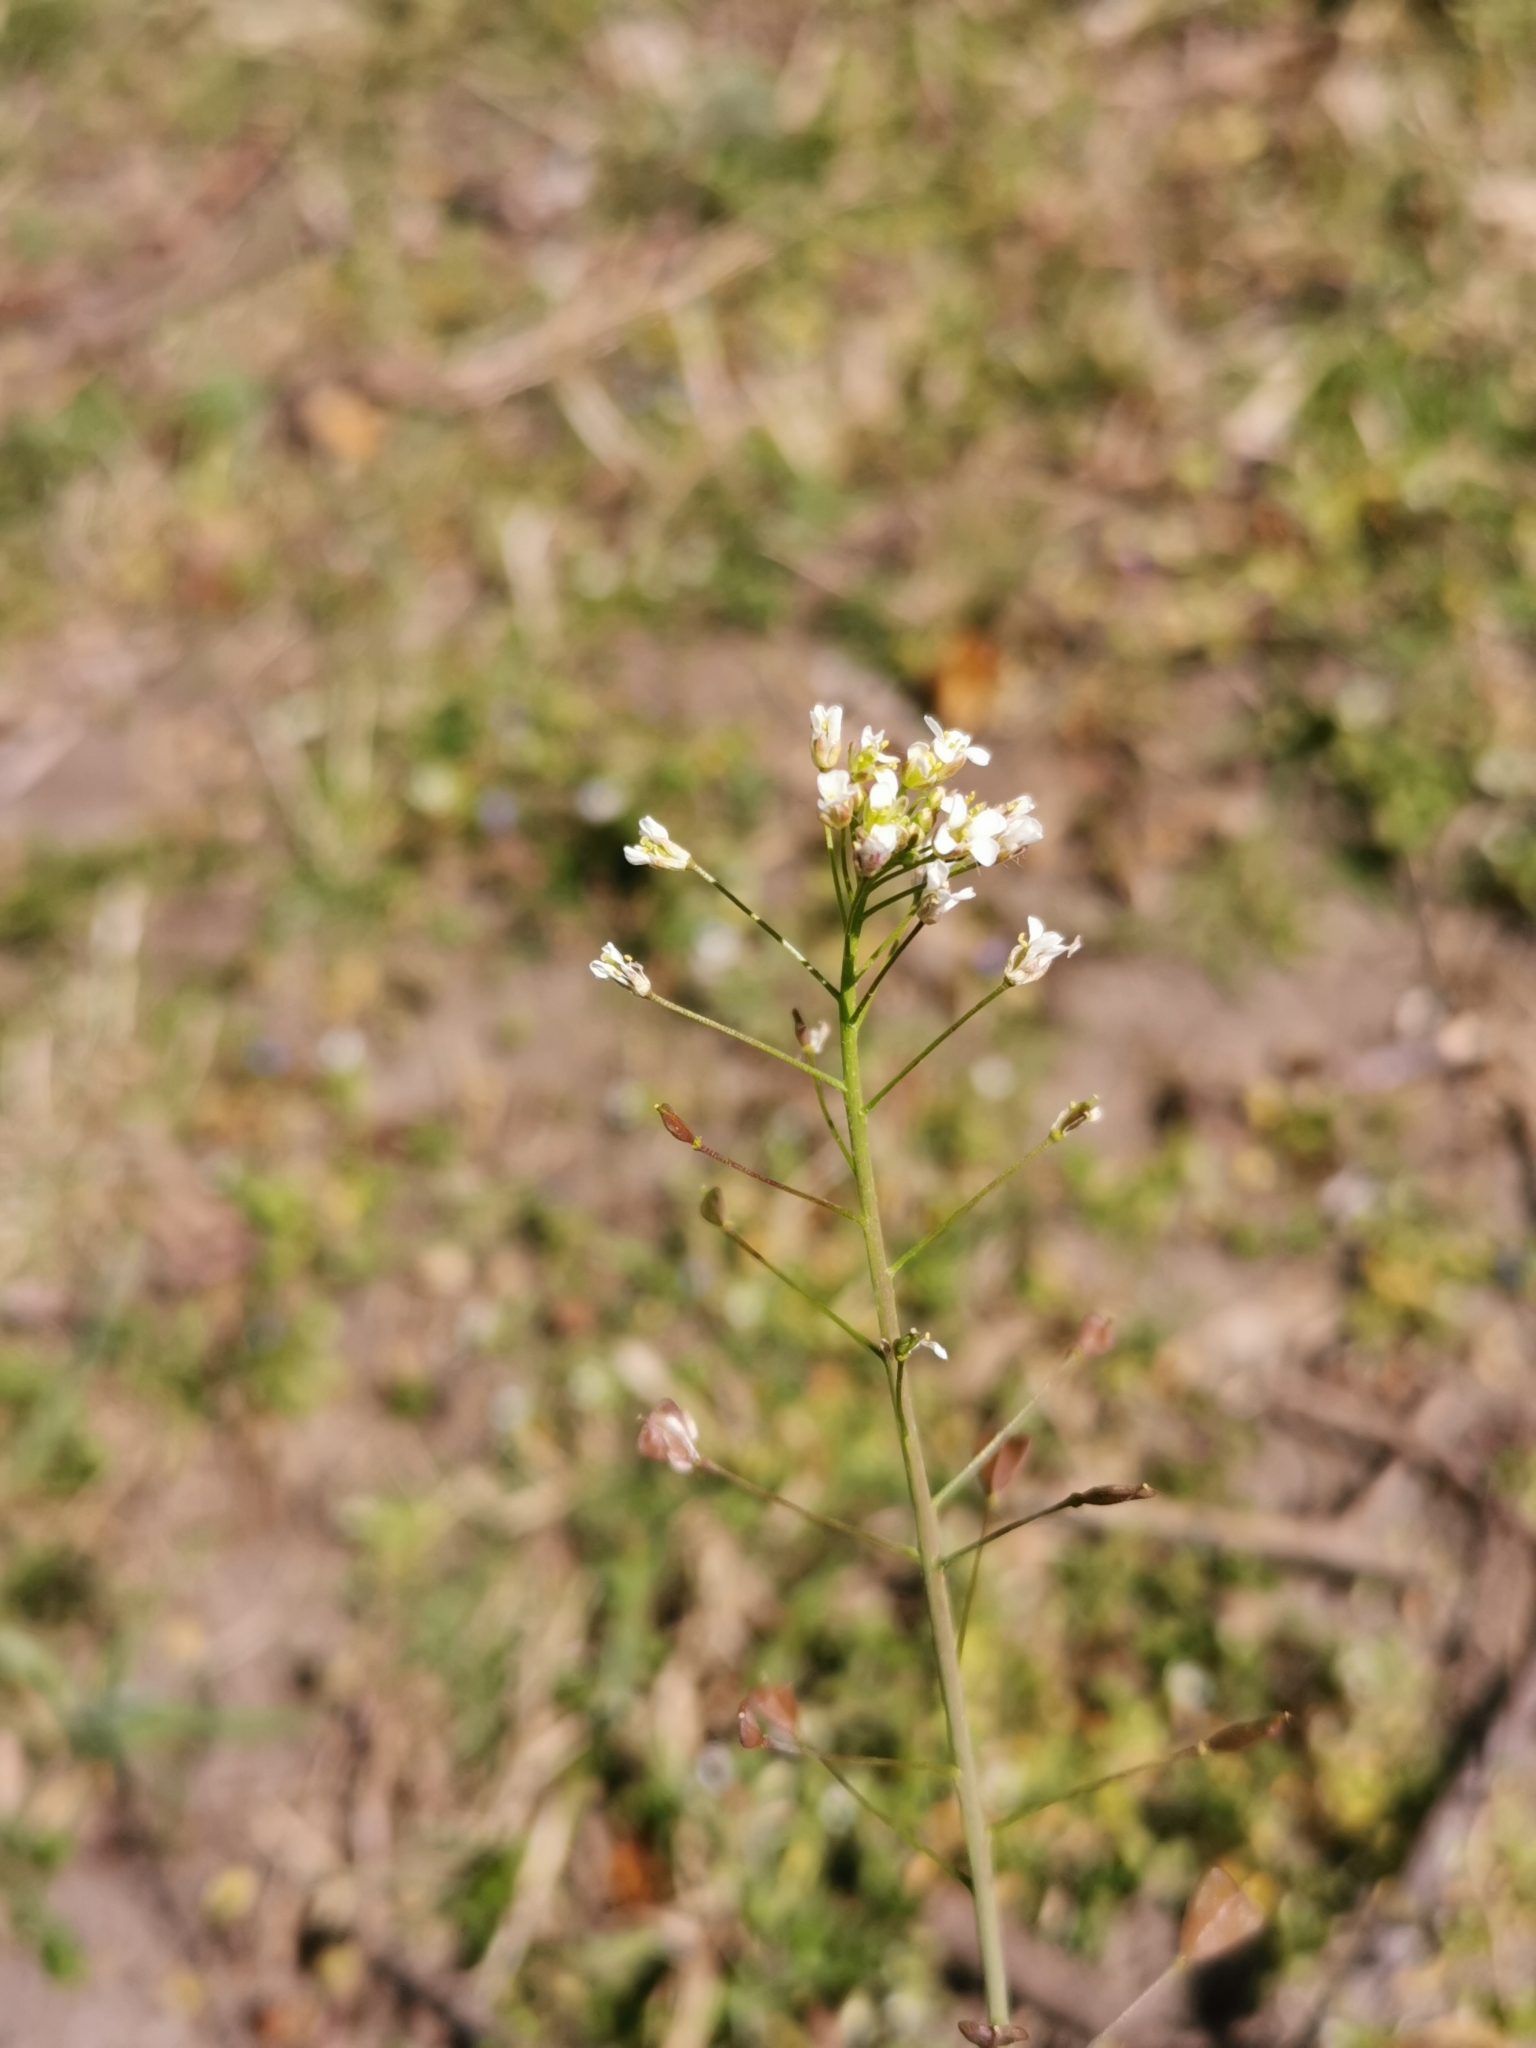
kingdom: Plantae
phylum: Tracheophyta
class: Magnoliopsida
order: Brassicales
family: Brassicaceae
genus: Capsella
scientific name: Capsella bursa-pastoris
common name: Shepherd's purse
